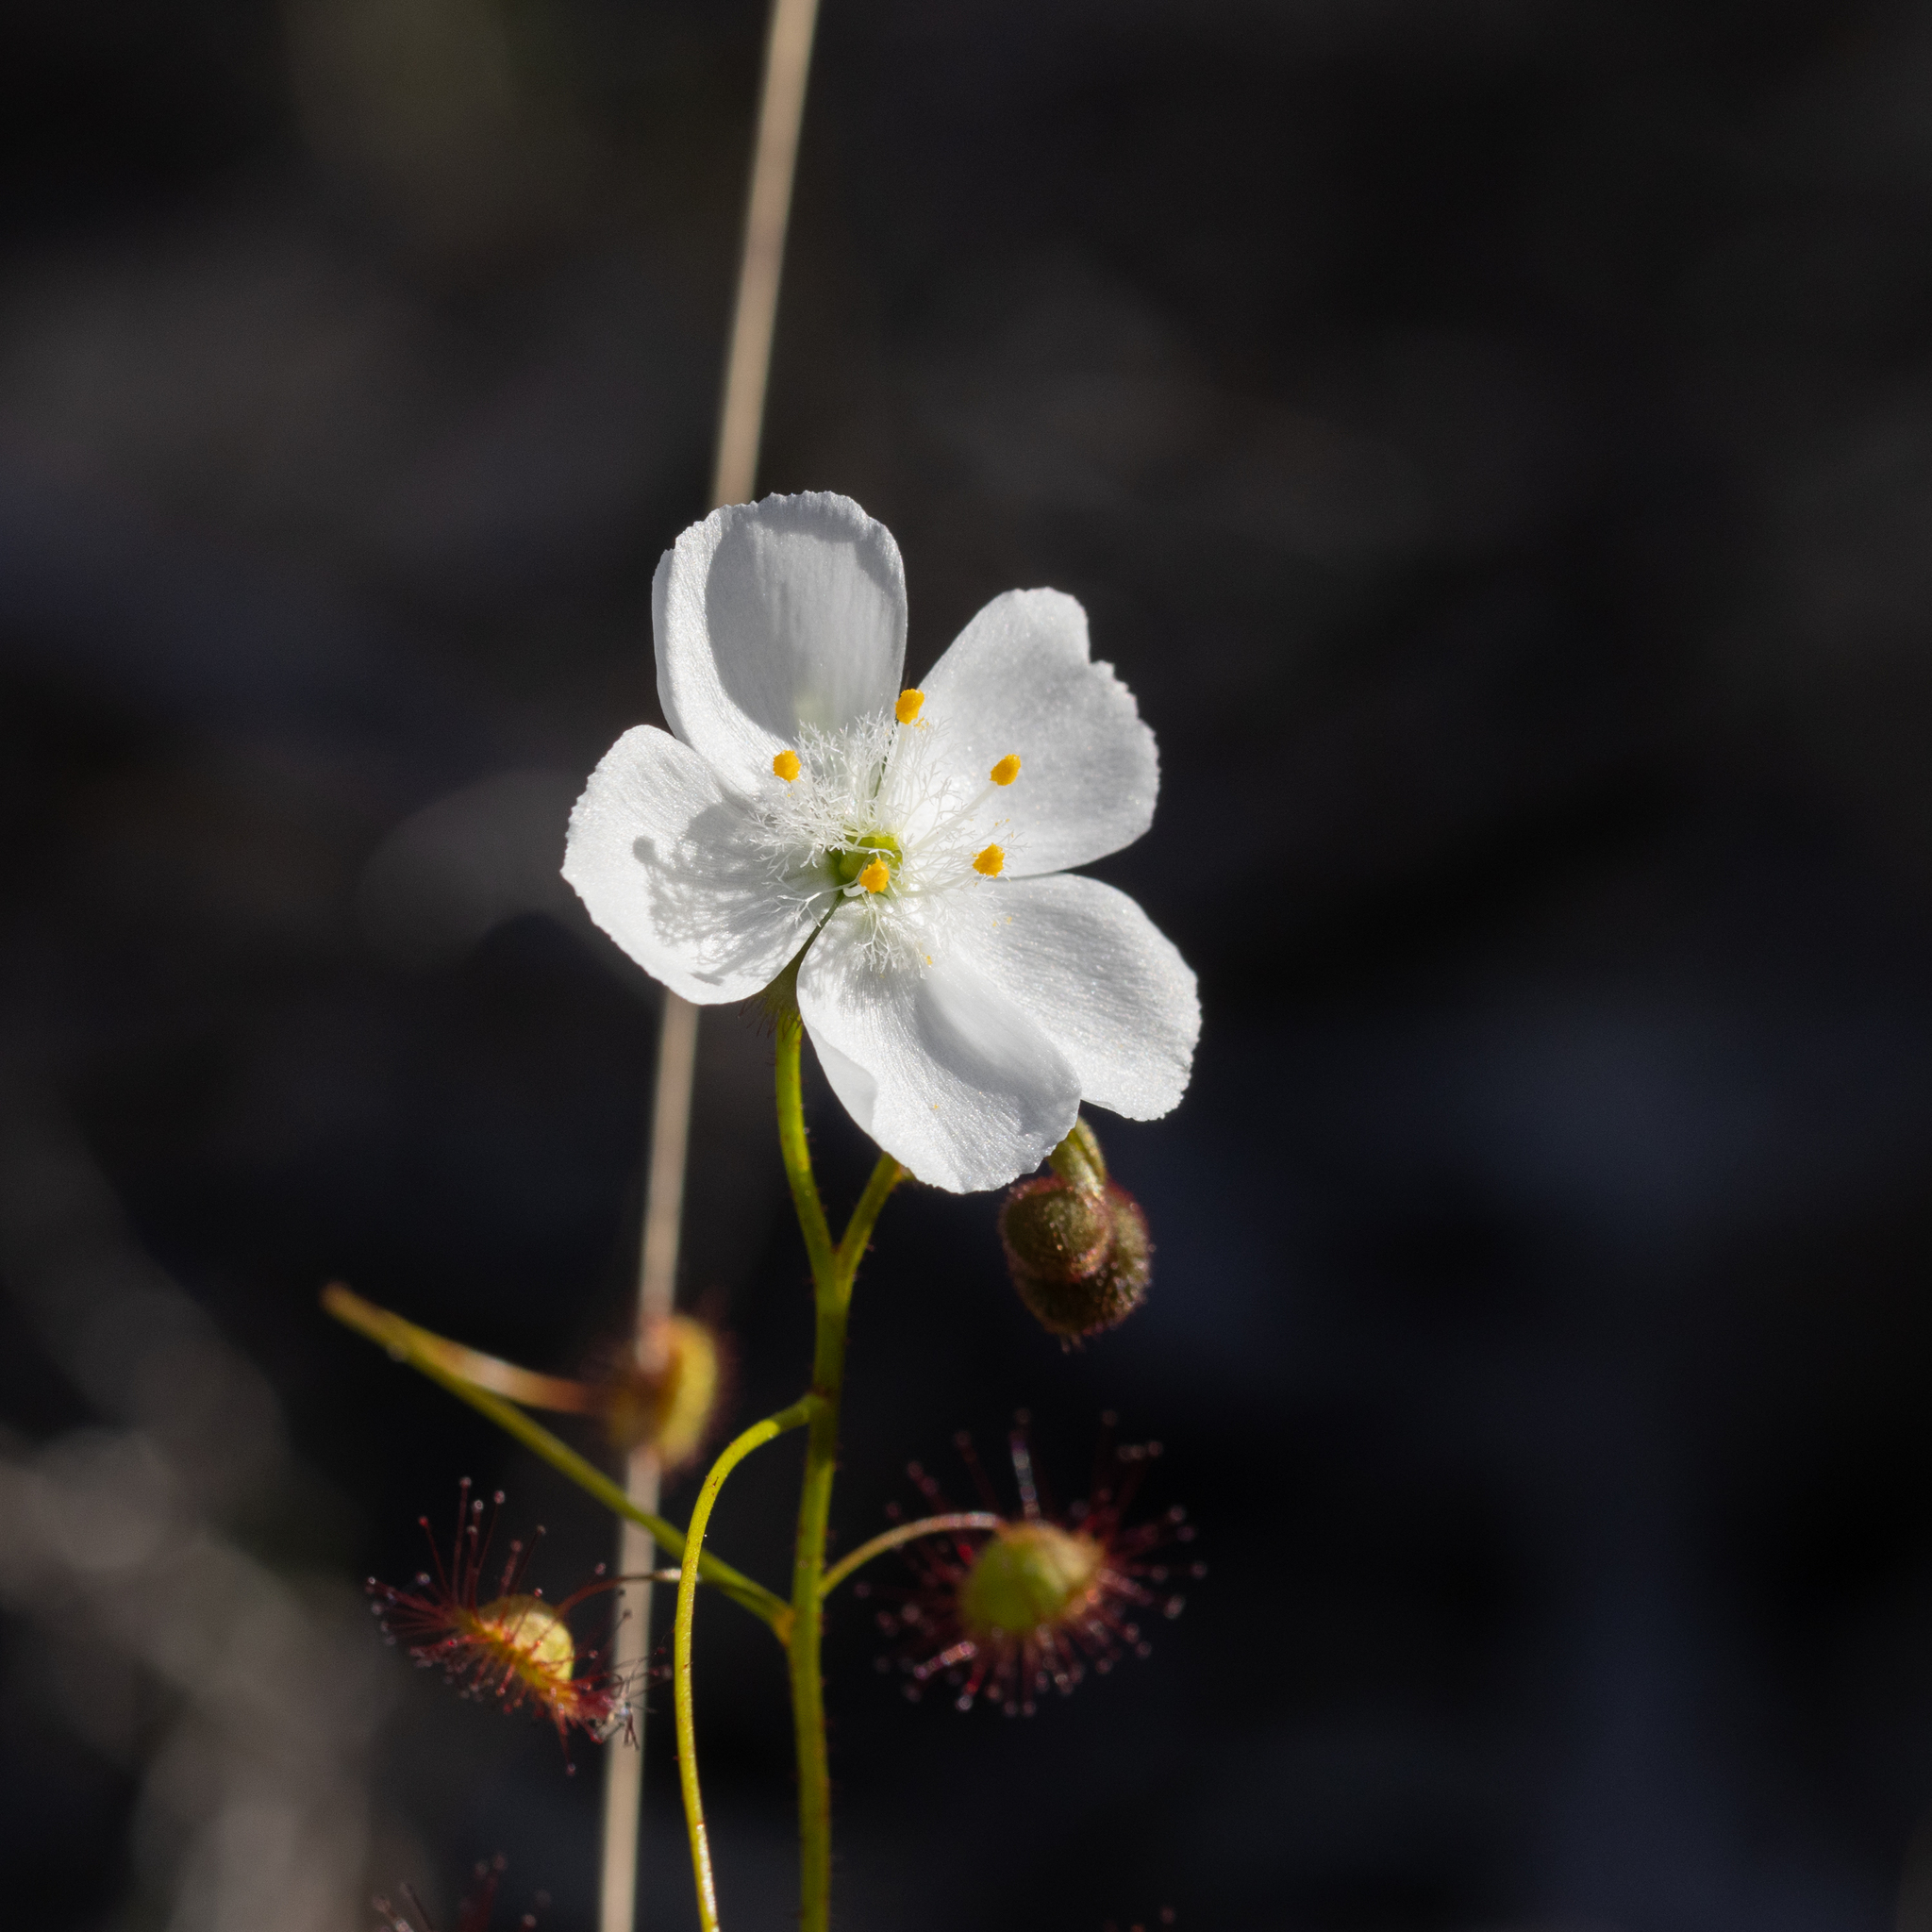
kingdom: Plantae
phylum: Tracheophyta
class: Magnoliopsida
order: Caryophyllales
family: Droseraceae
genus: Drosera
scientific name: Drosera planchonii
